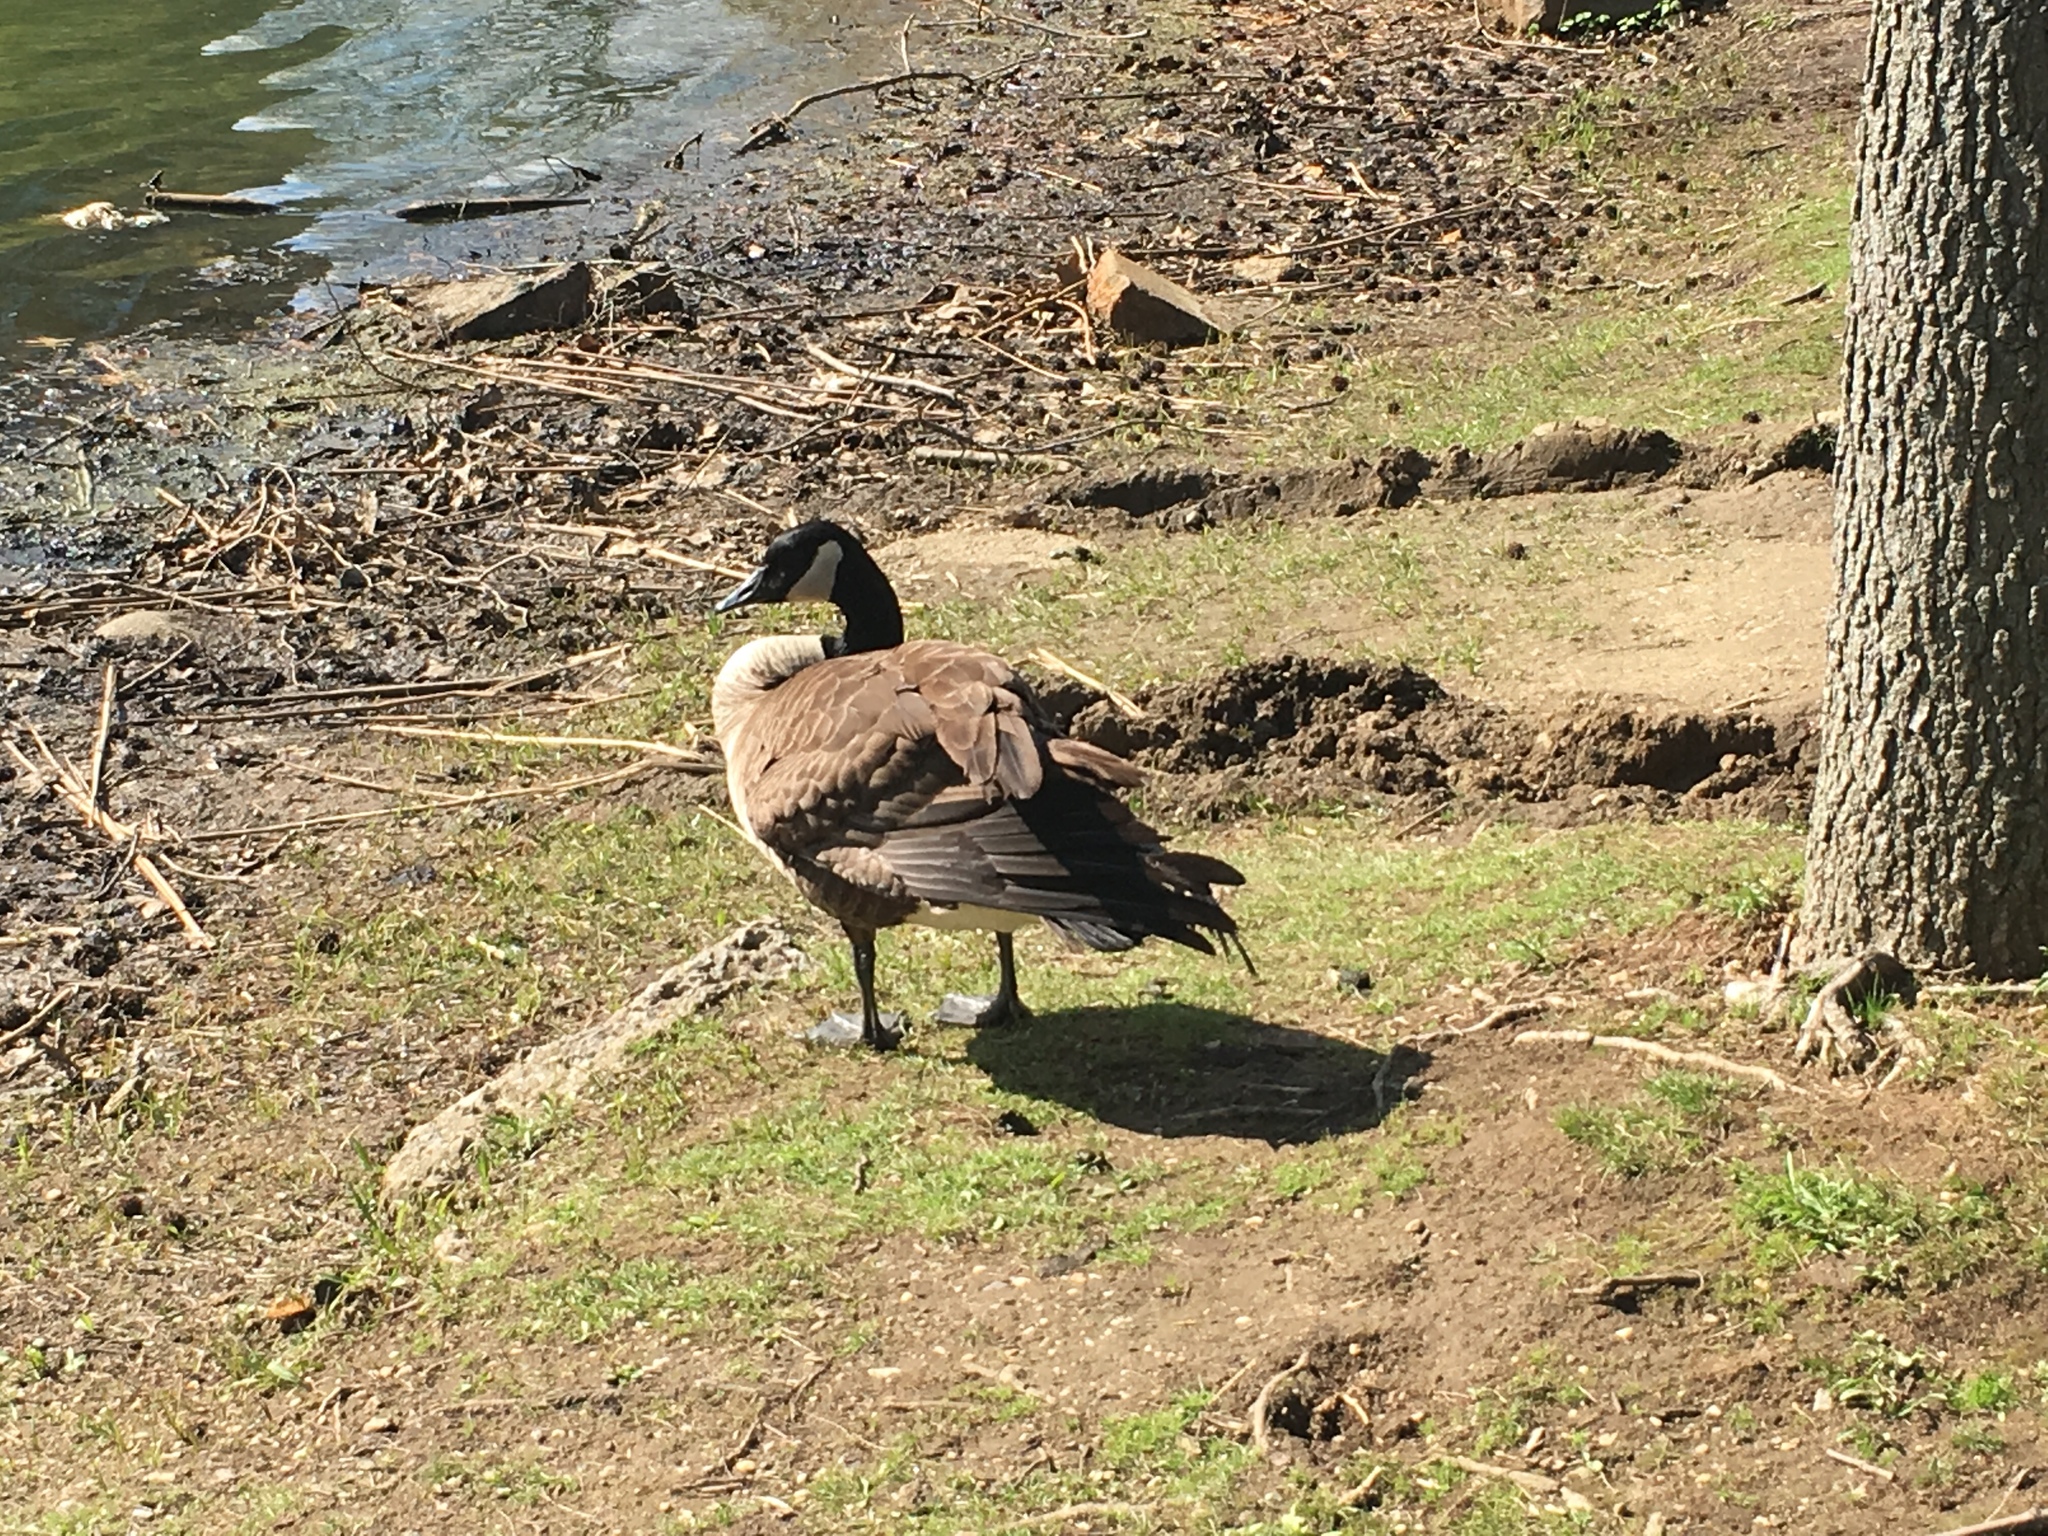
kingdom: Animalia
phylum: Chordata
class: Aves
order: Anseriformes
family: Anatidae
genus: Branta
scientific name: Branta canadensis
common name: Canada goose
